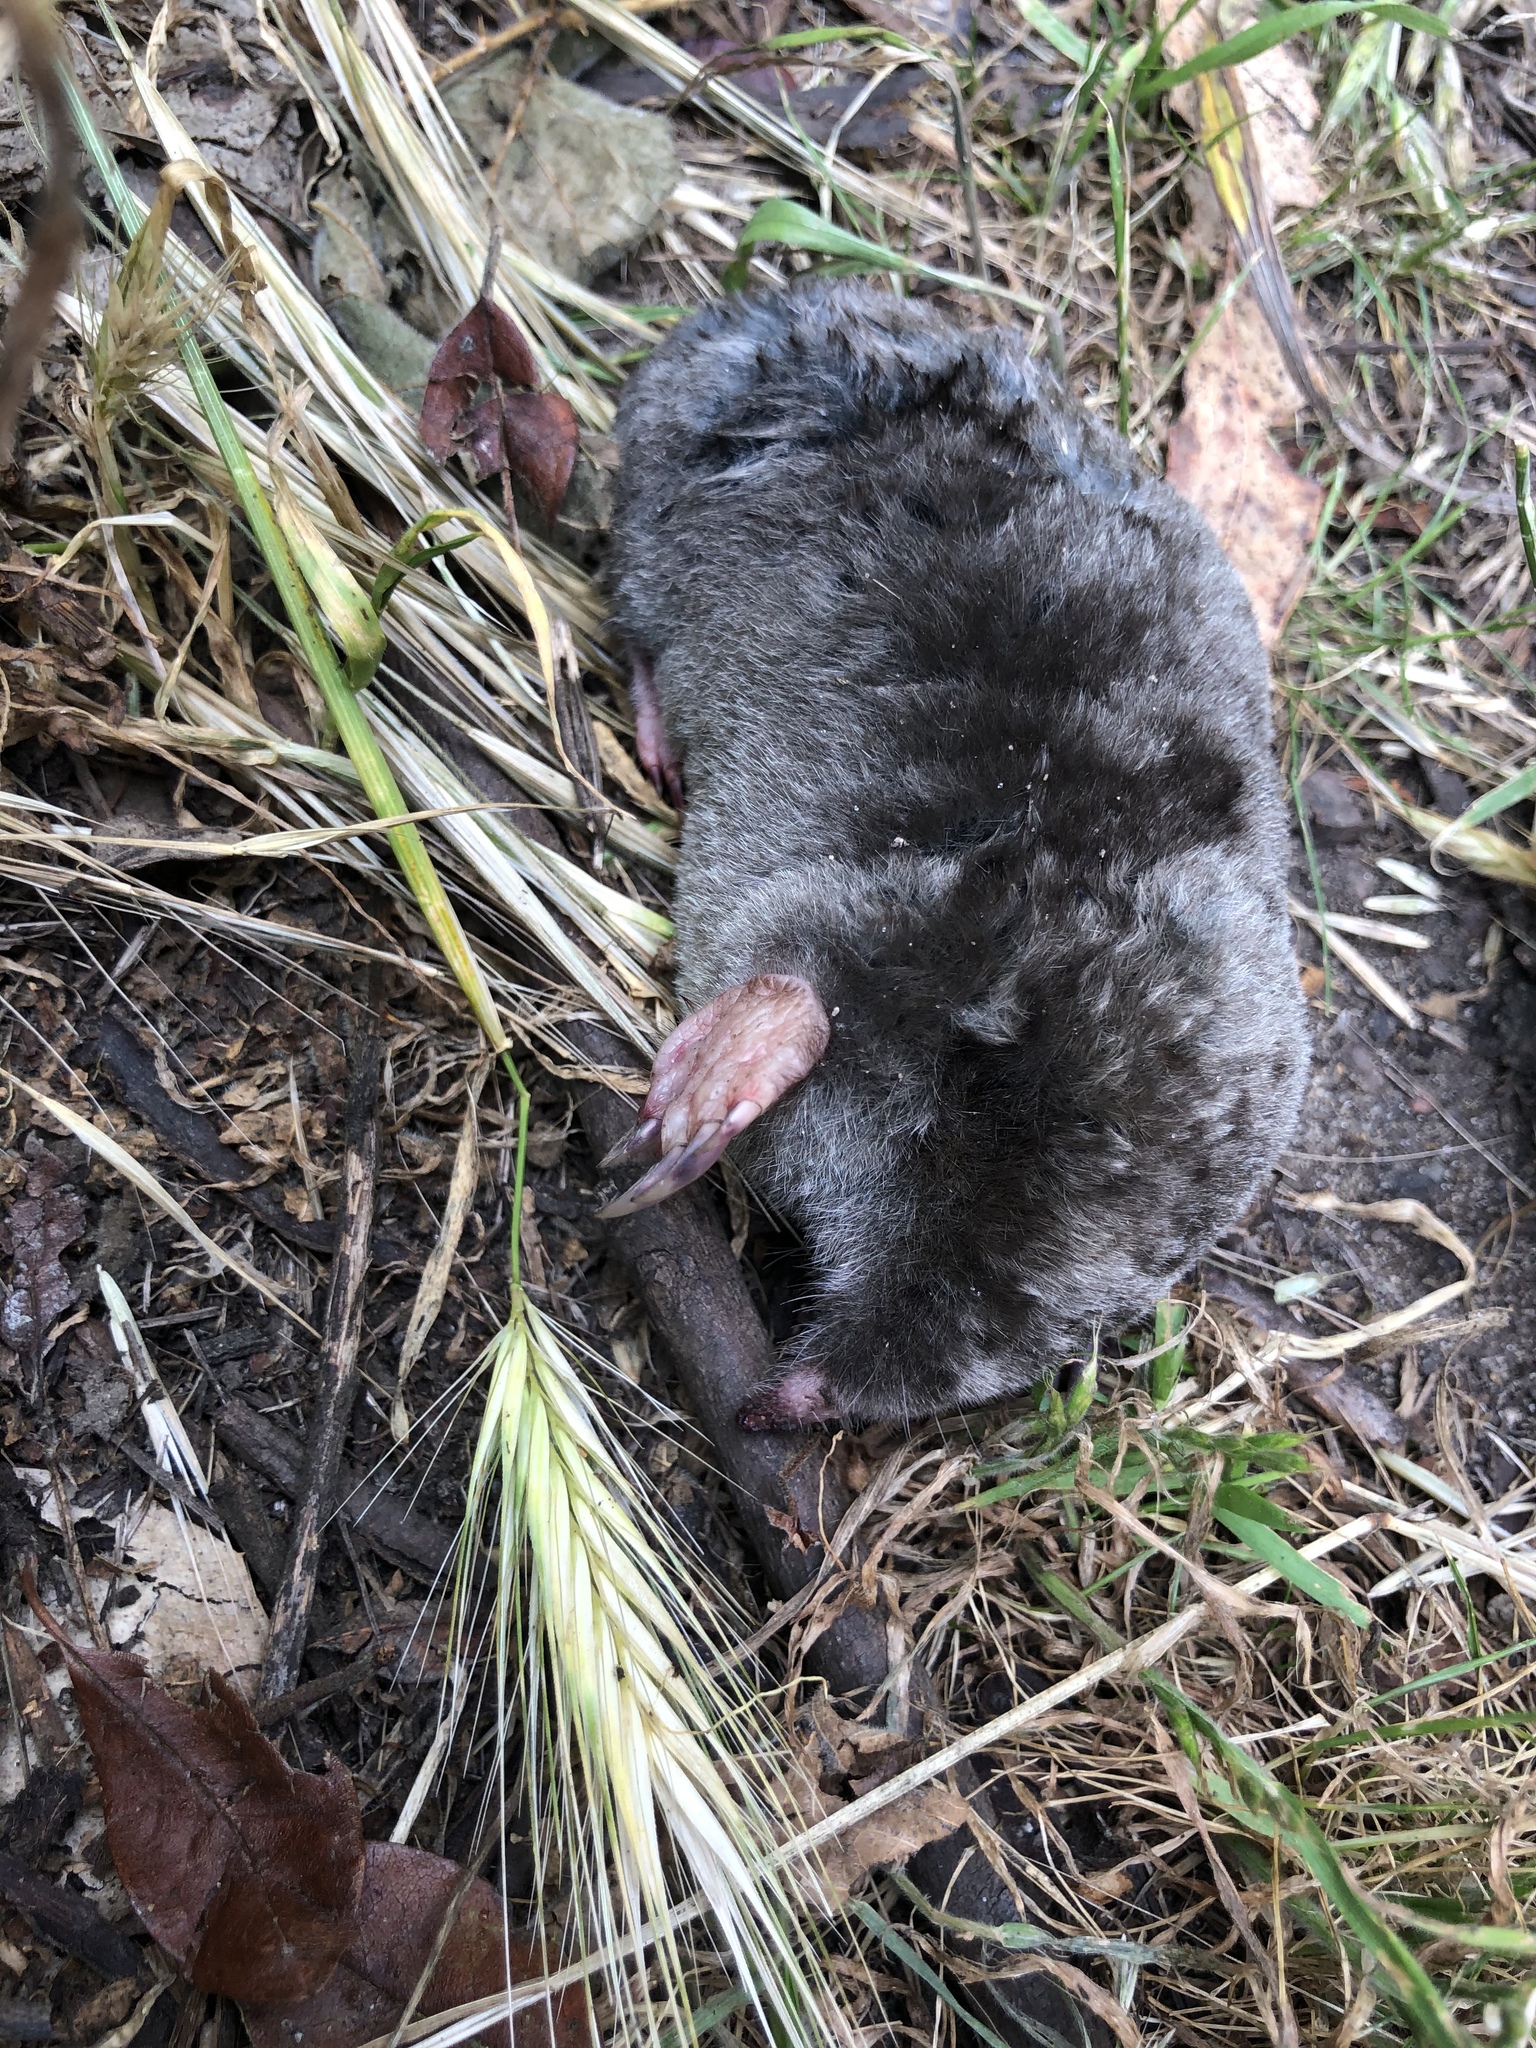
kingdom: Animalia
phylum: Chordata
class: Mammalia
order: Soricomorpha
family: Talpidae
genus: Scapanus
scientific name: Scapanus latimanus
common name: Broad-footed mole
